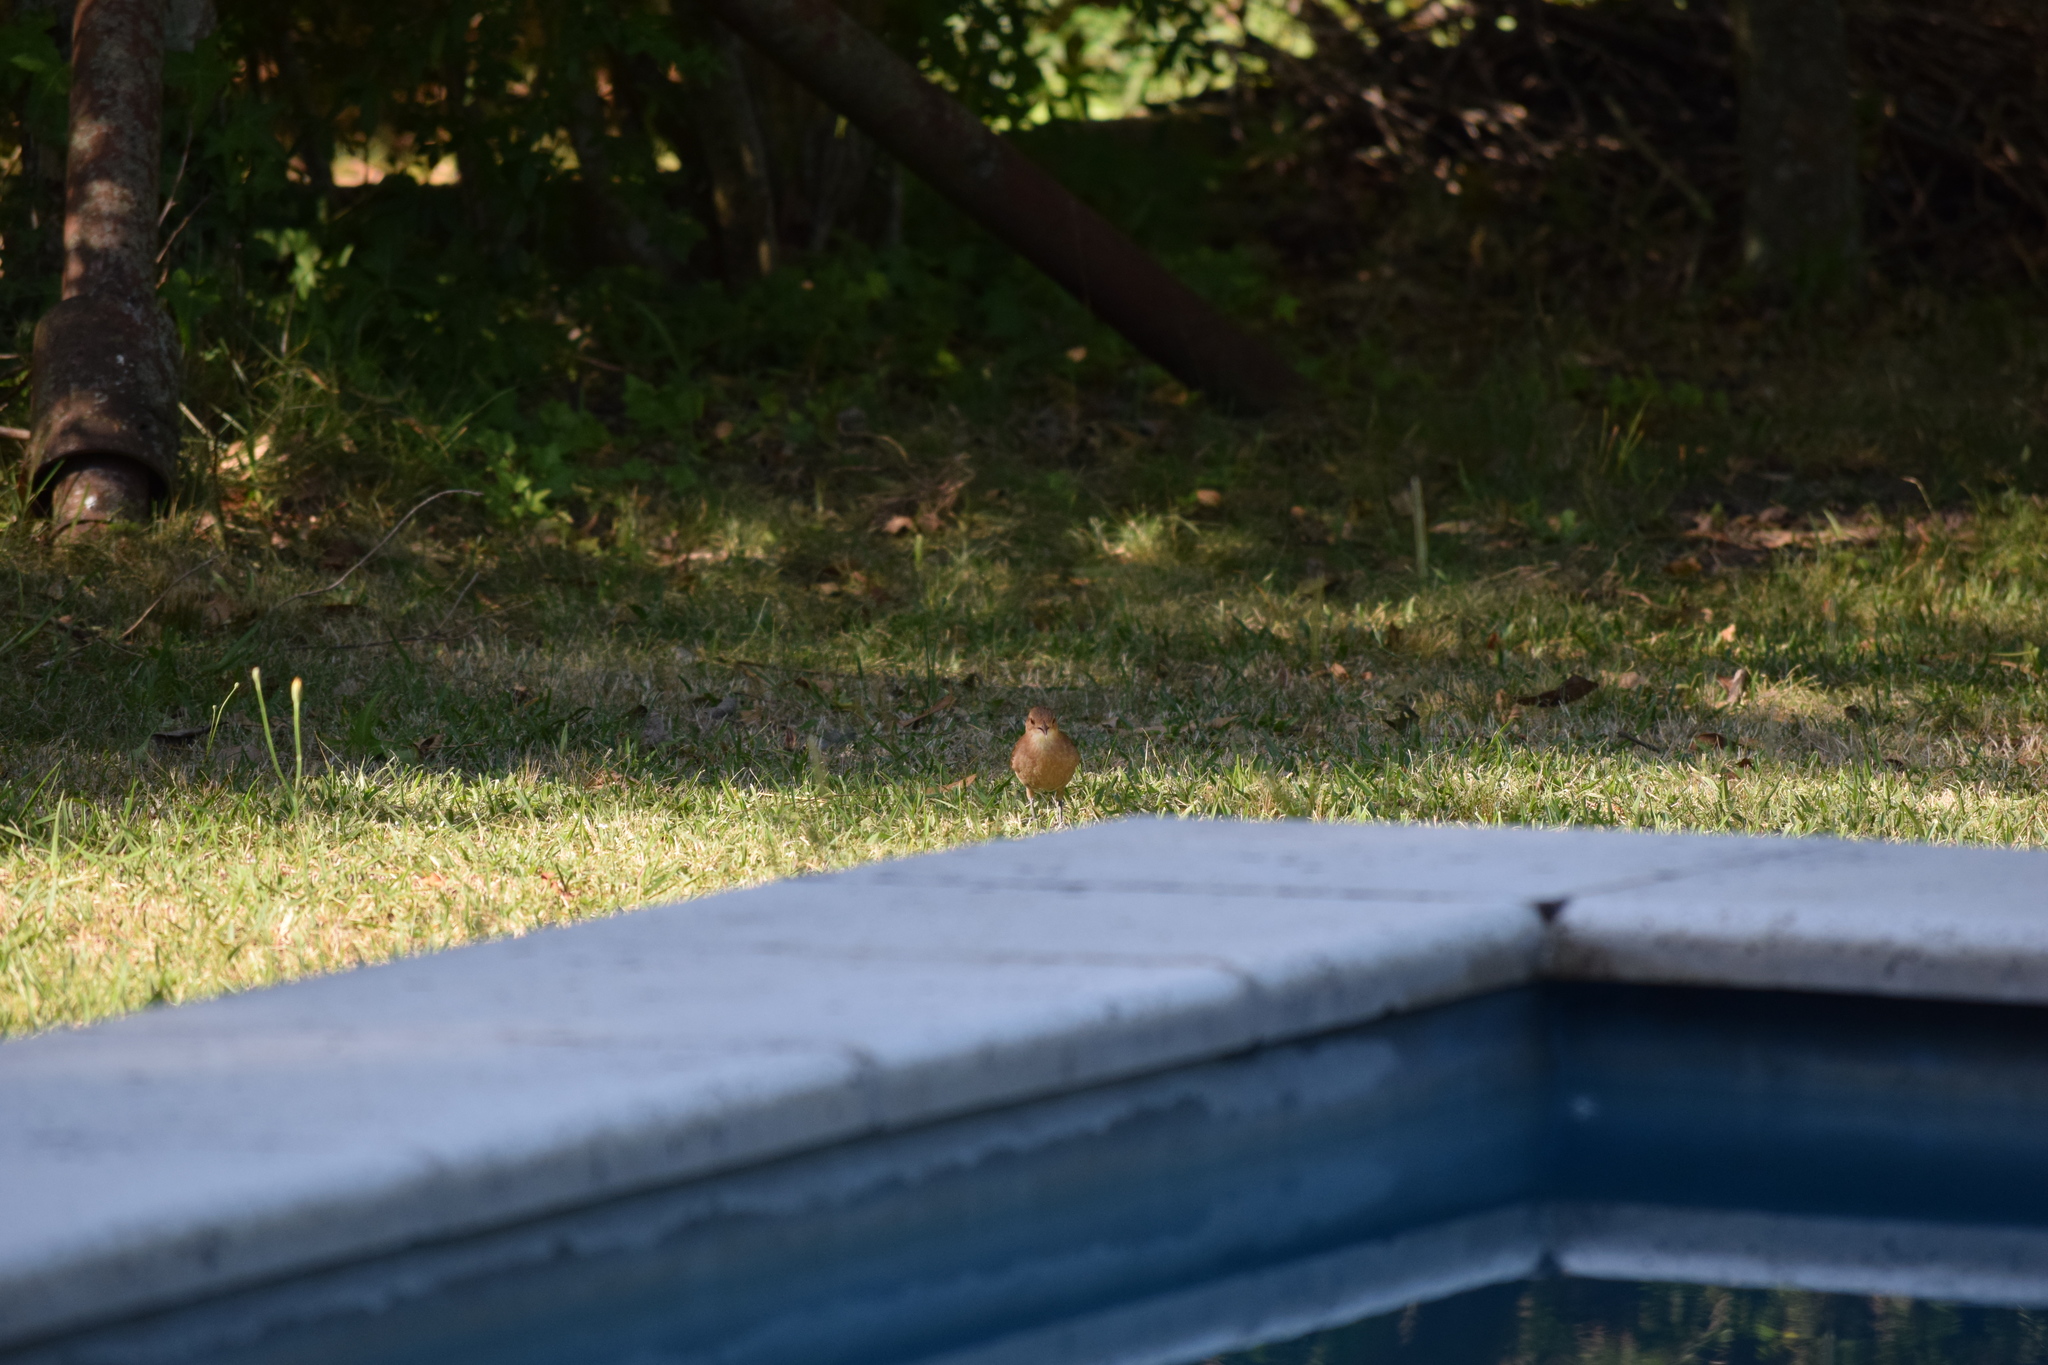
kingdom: Animalia
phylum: Chordata
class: Aves
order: Passeriformes
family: Furnariidae
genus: Furnarius
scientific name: Furnarius rufus
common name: Rufous hornero
